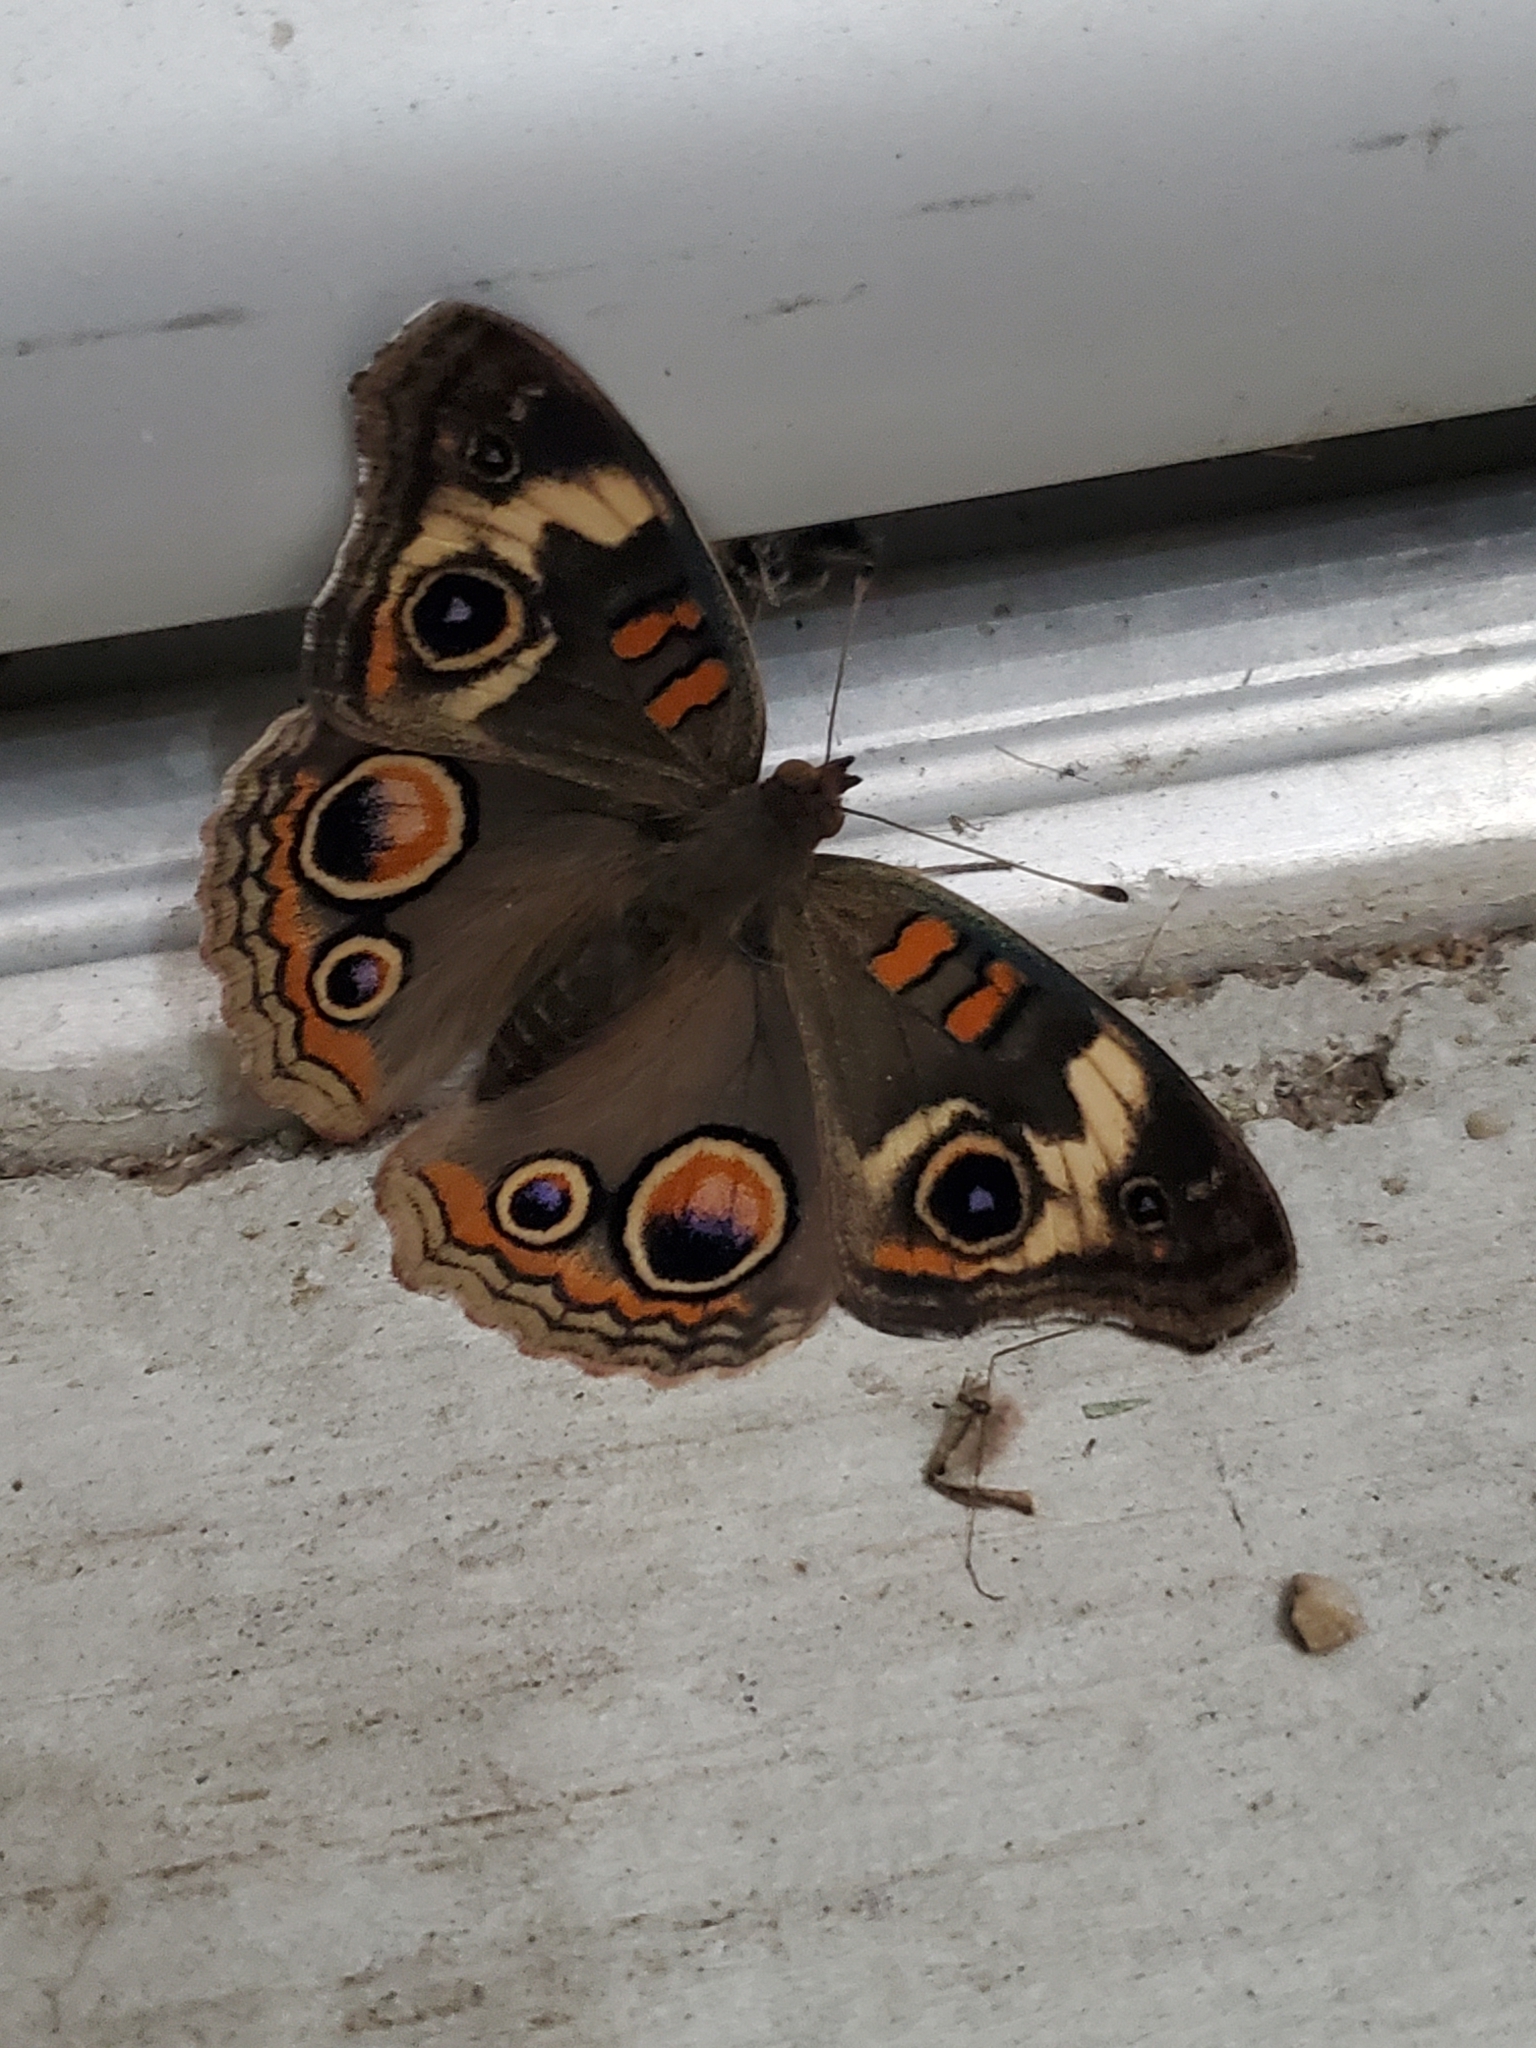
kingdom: Animalia
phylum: Arthropoda
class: Insecta
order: Lepidoptera
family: Nymphalidae
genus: Junonia
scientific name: Junonia coenia
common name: Common buckeye
